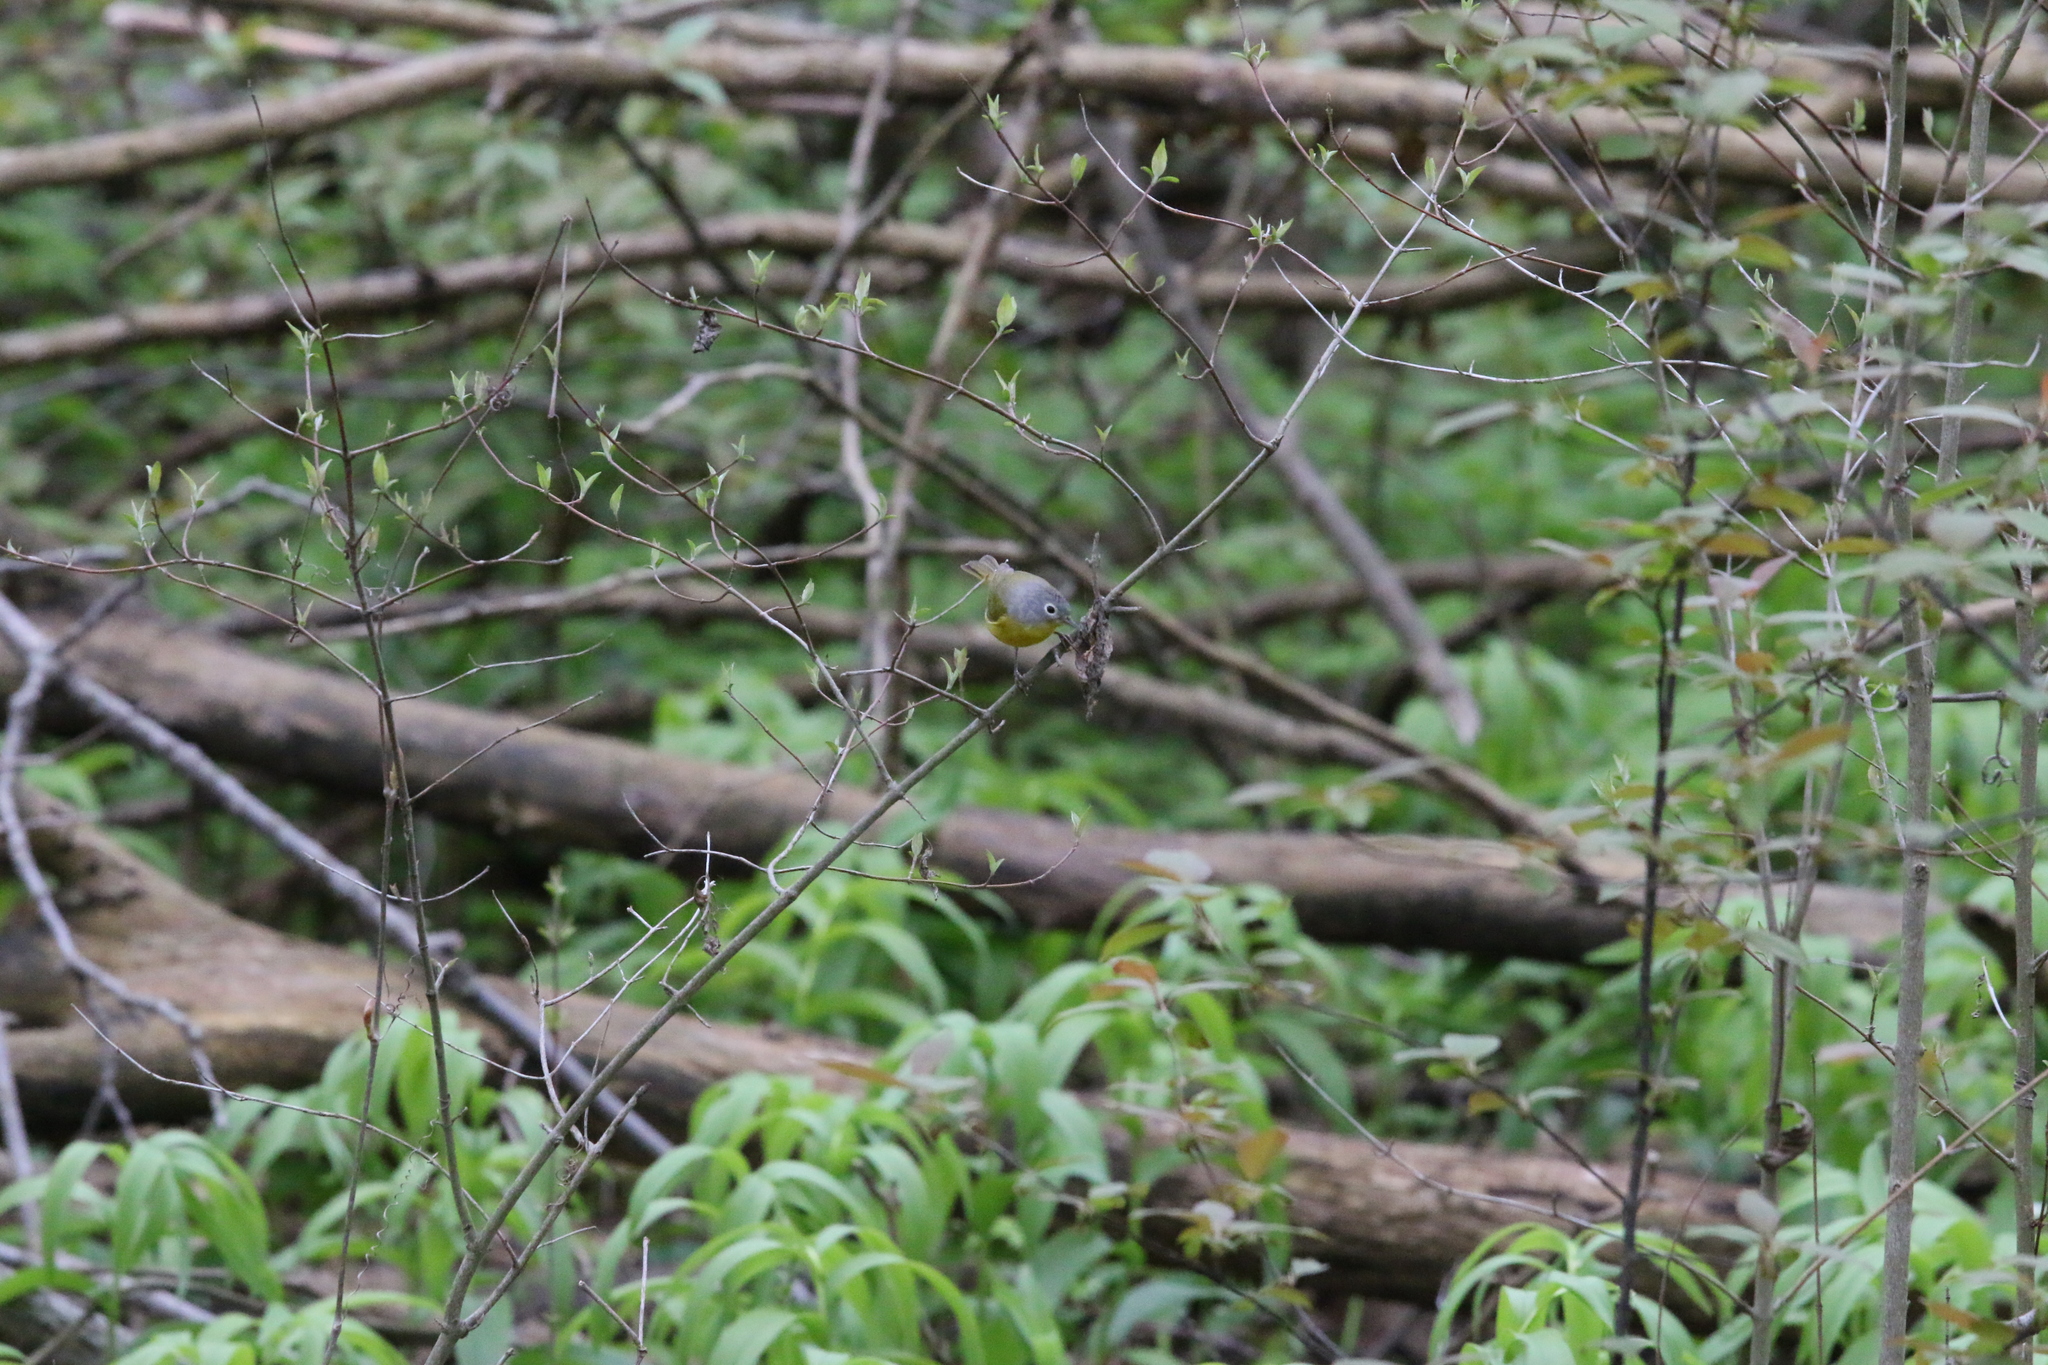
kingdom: Animalia
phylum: Chordata
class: Aves
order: Passeriformes
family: Parulidae
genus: Leiothlypis
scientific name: Leiothlypis ruficapilla
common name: Nashville warbler
